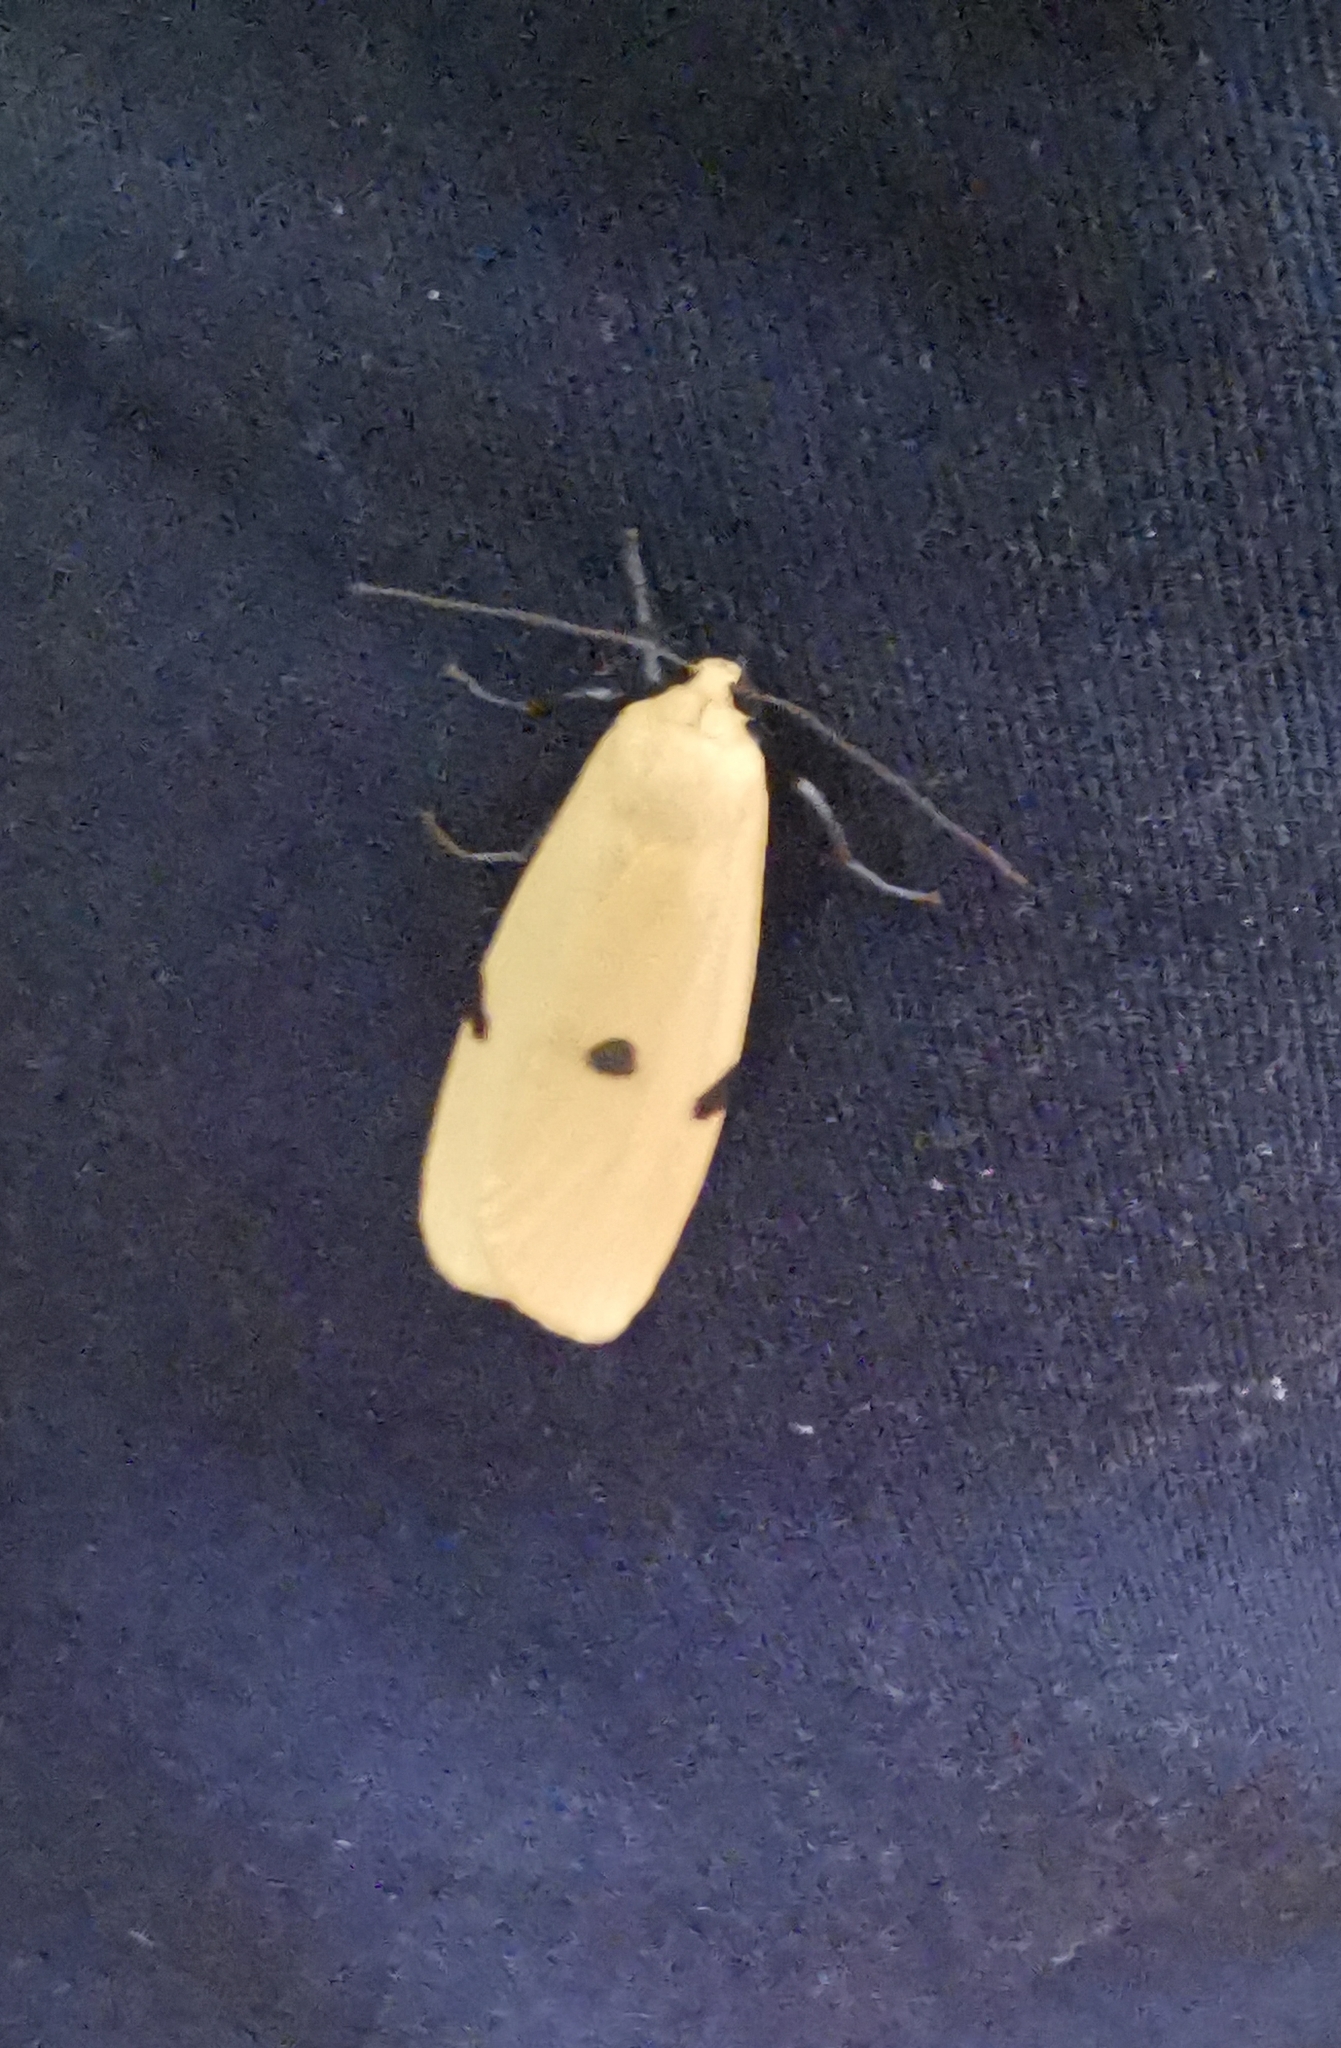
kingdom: Animalia
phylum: Arthropoda
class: Insecta
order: Lepidoptera
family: Erebidae
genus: Lithosia
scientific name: Lithosia quadra
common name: Four-spotted footman
